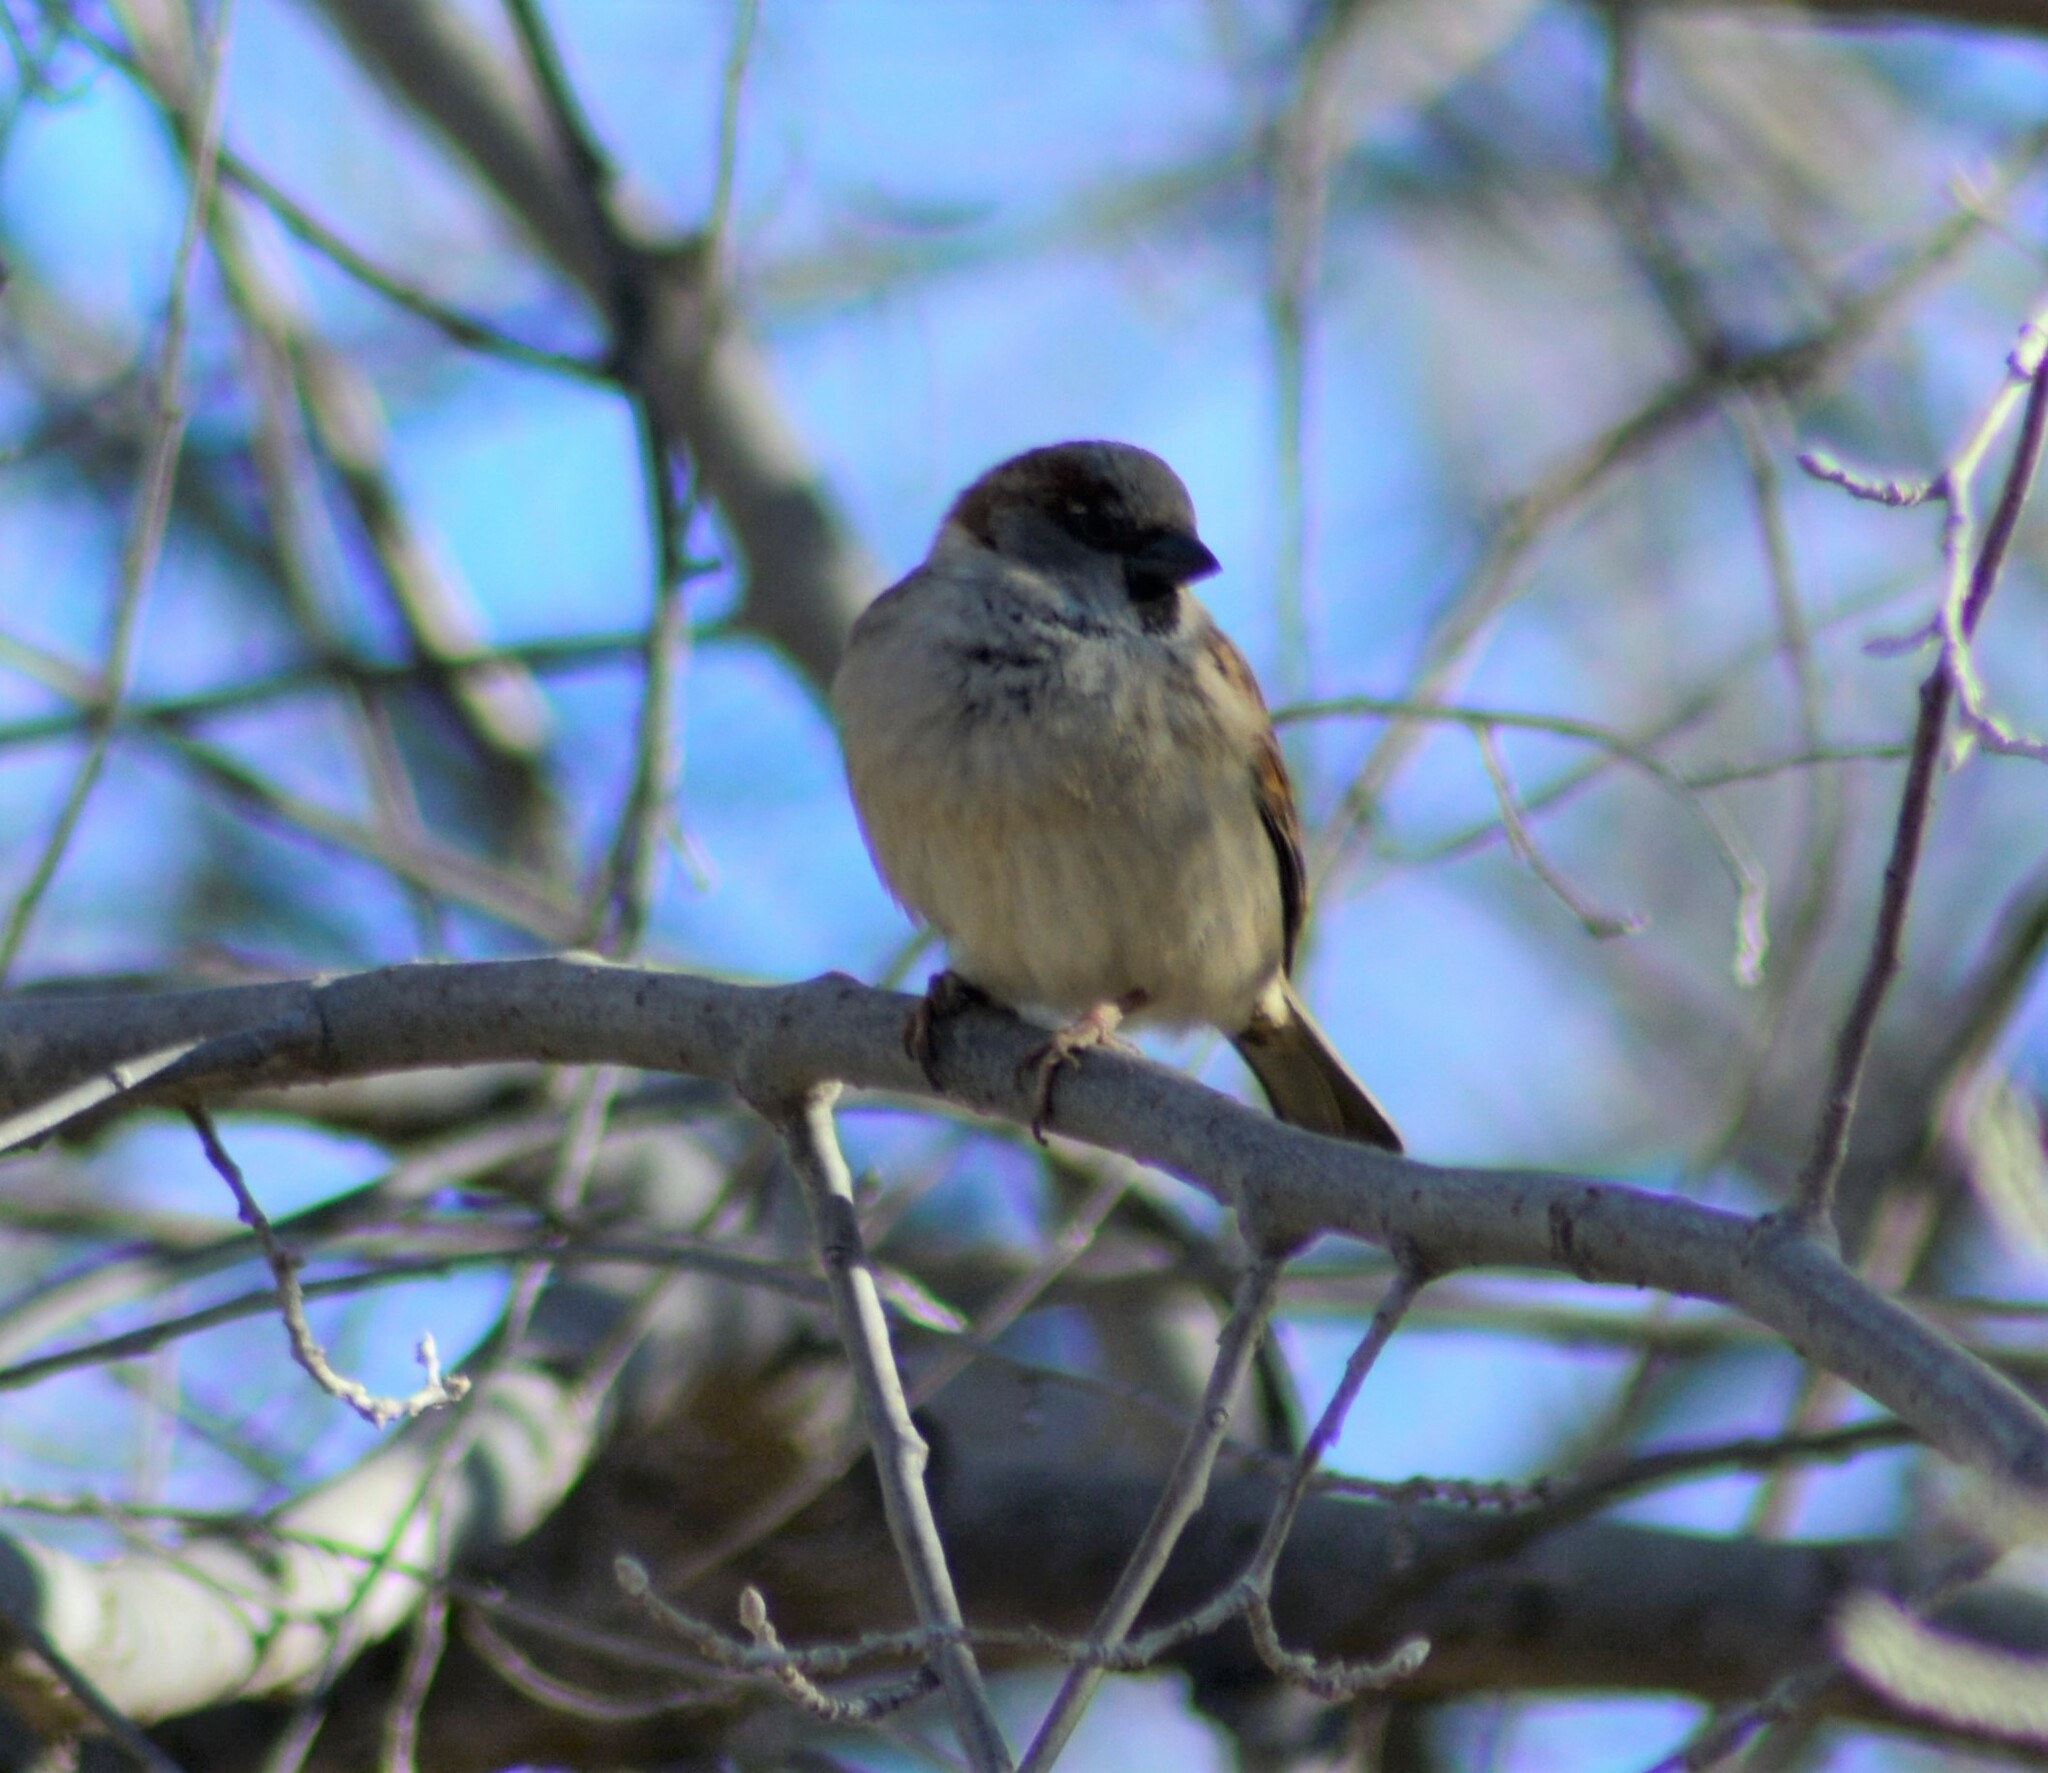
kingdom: Animalia
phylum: Chordata
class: Aves
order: Passeriformes
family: Passeridae
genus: Passer
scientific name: Passer domesticus
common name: House sparrow
